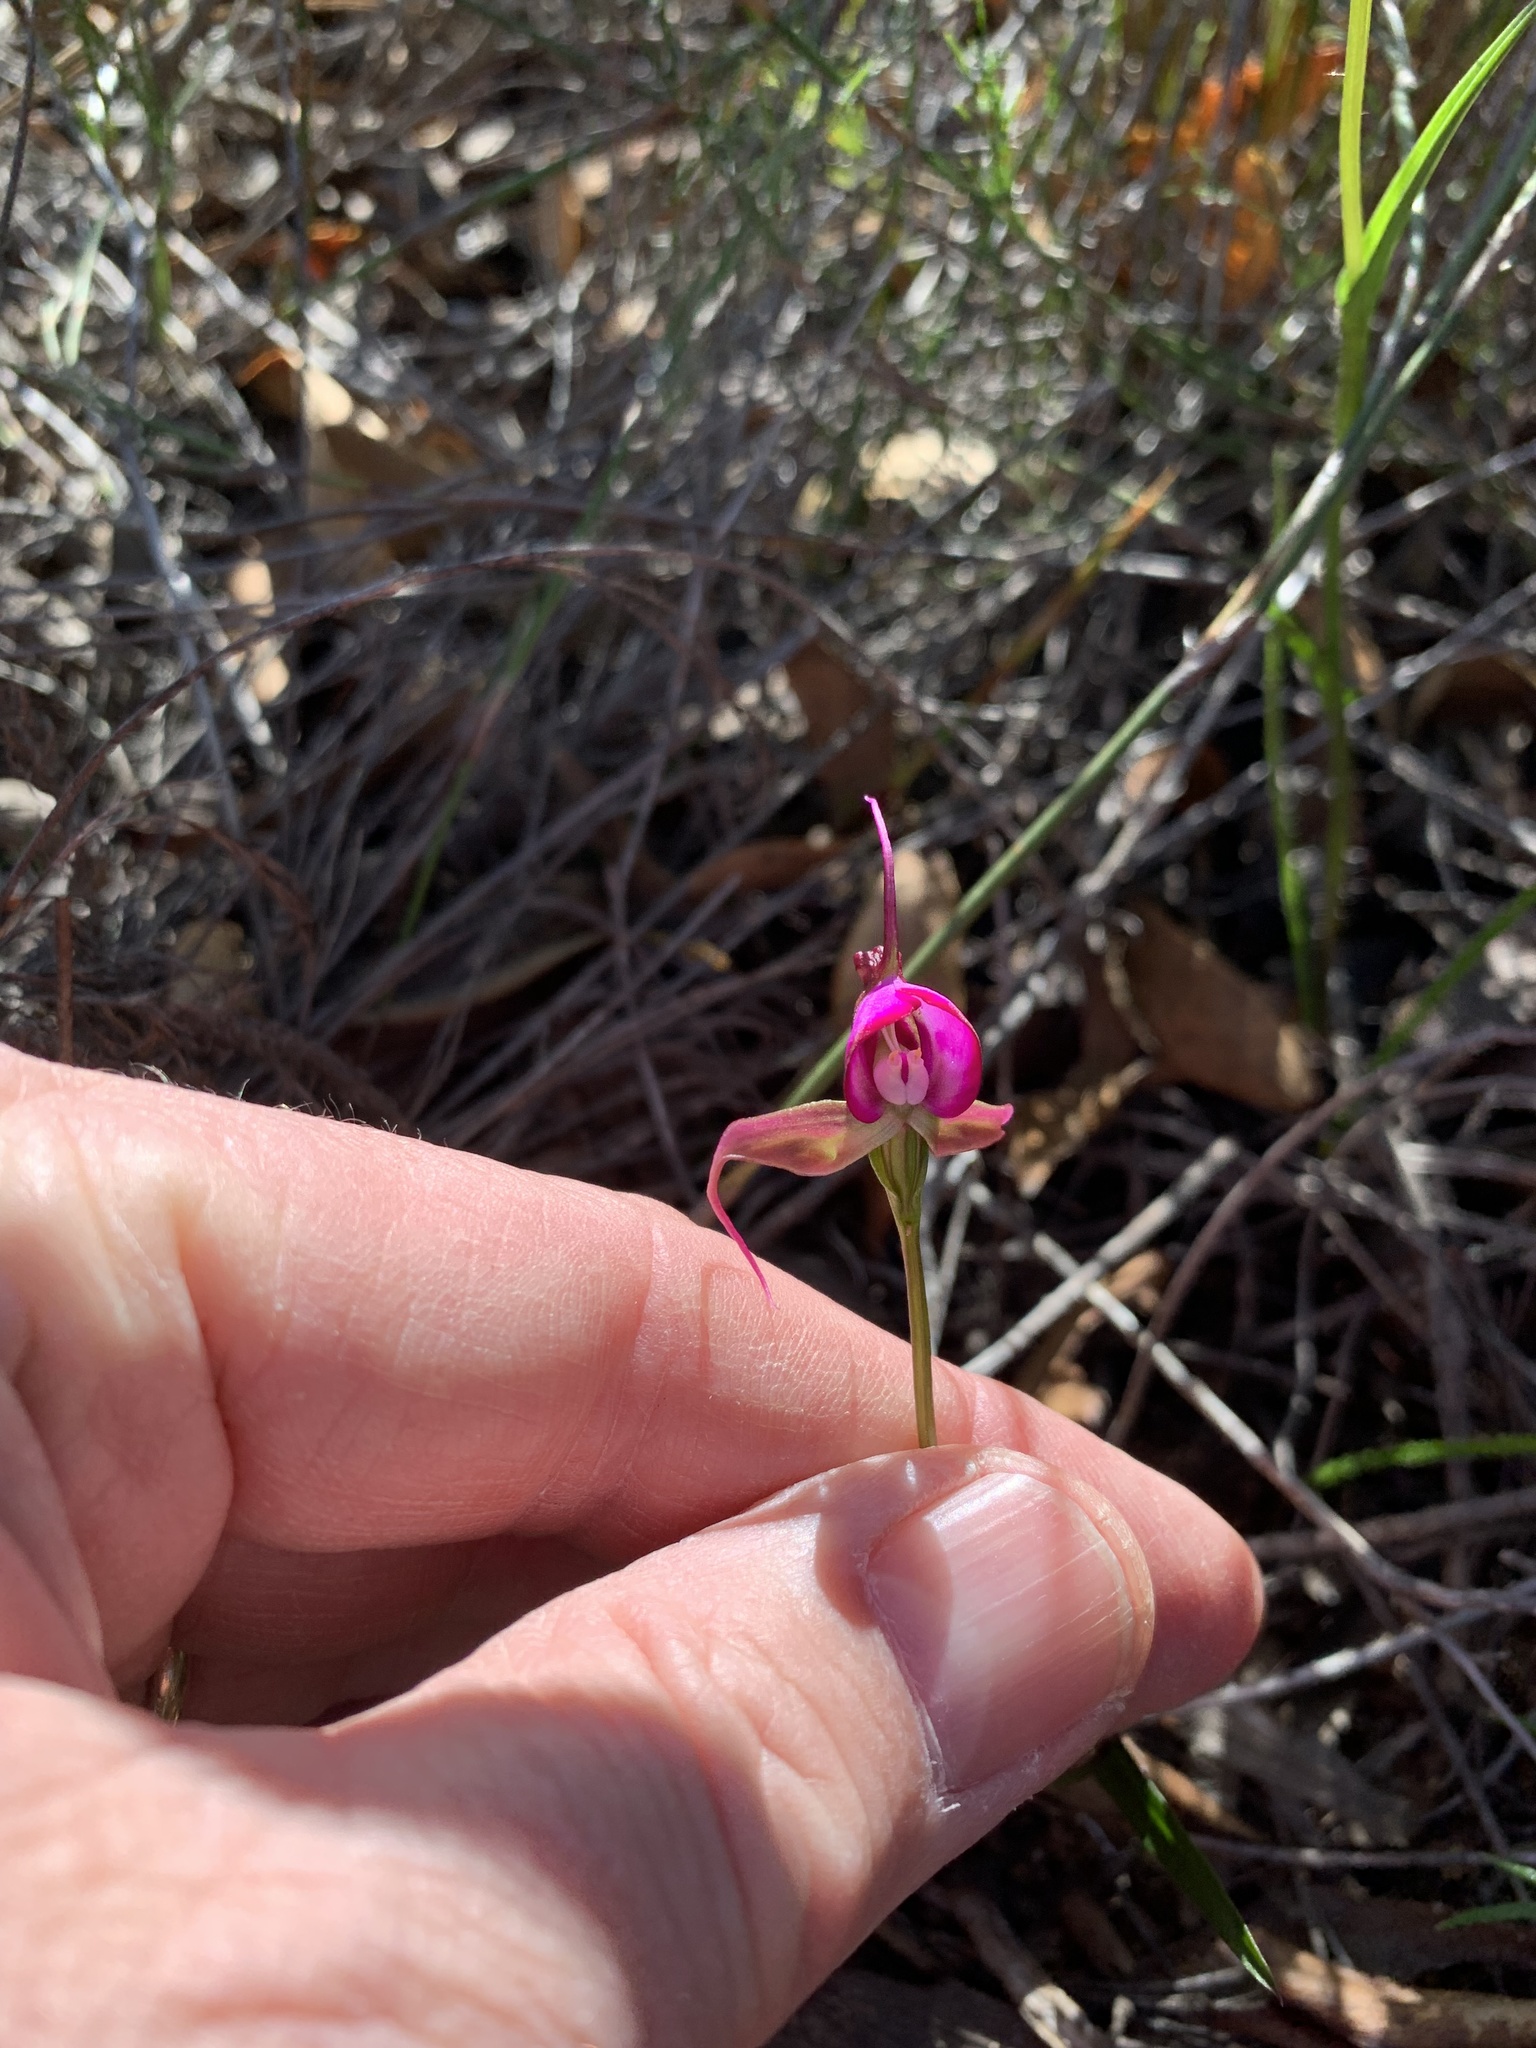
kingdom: Plantae
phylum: Tracheophyta
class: Liliopsida
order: Asparagales
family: Orchidaceae
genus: Disperis
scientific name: Disperis capensis
